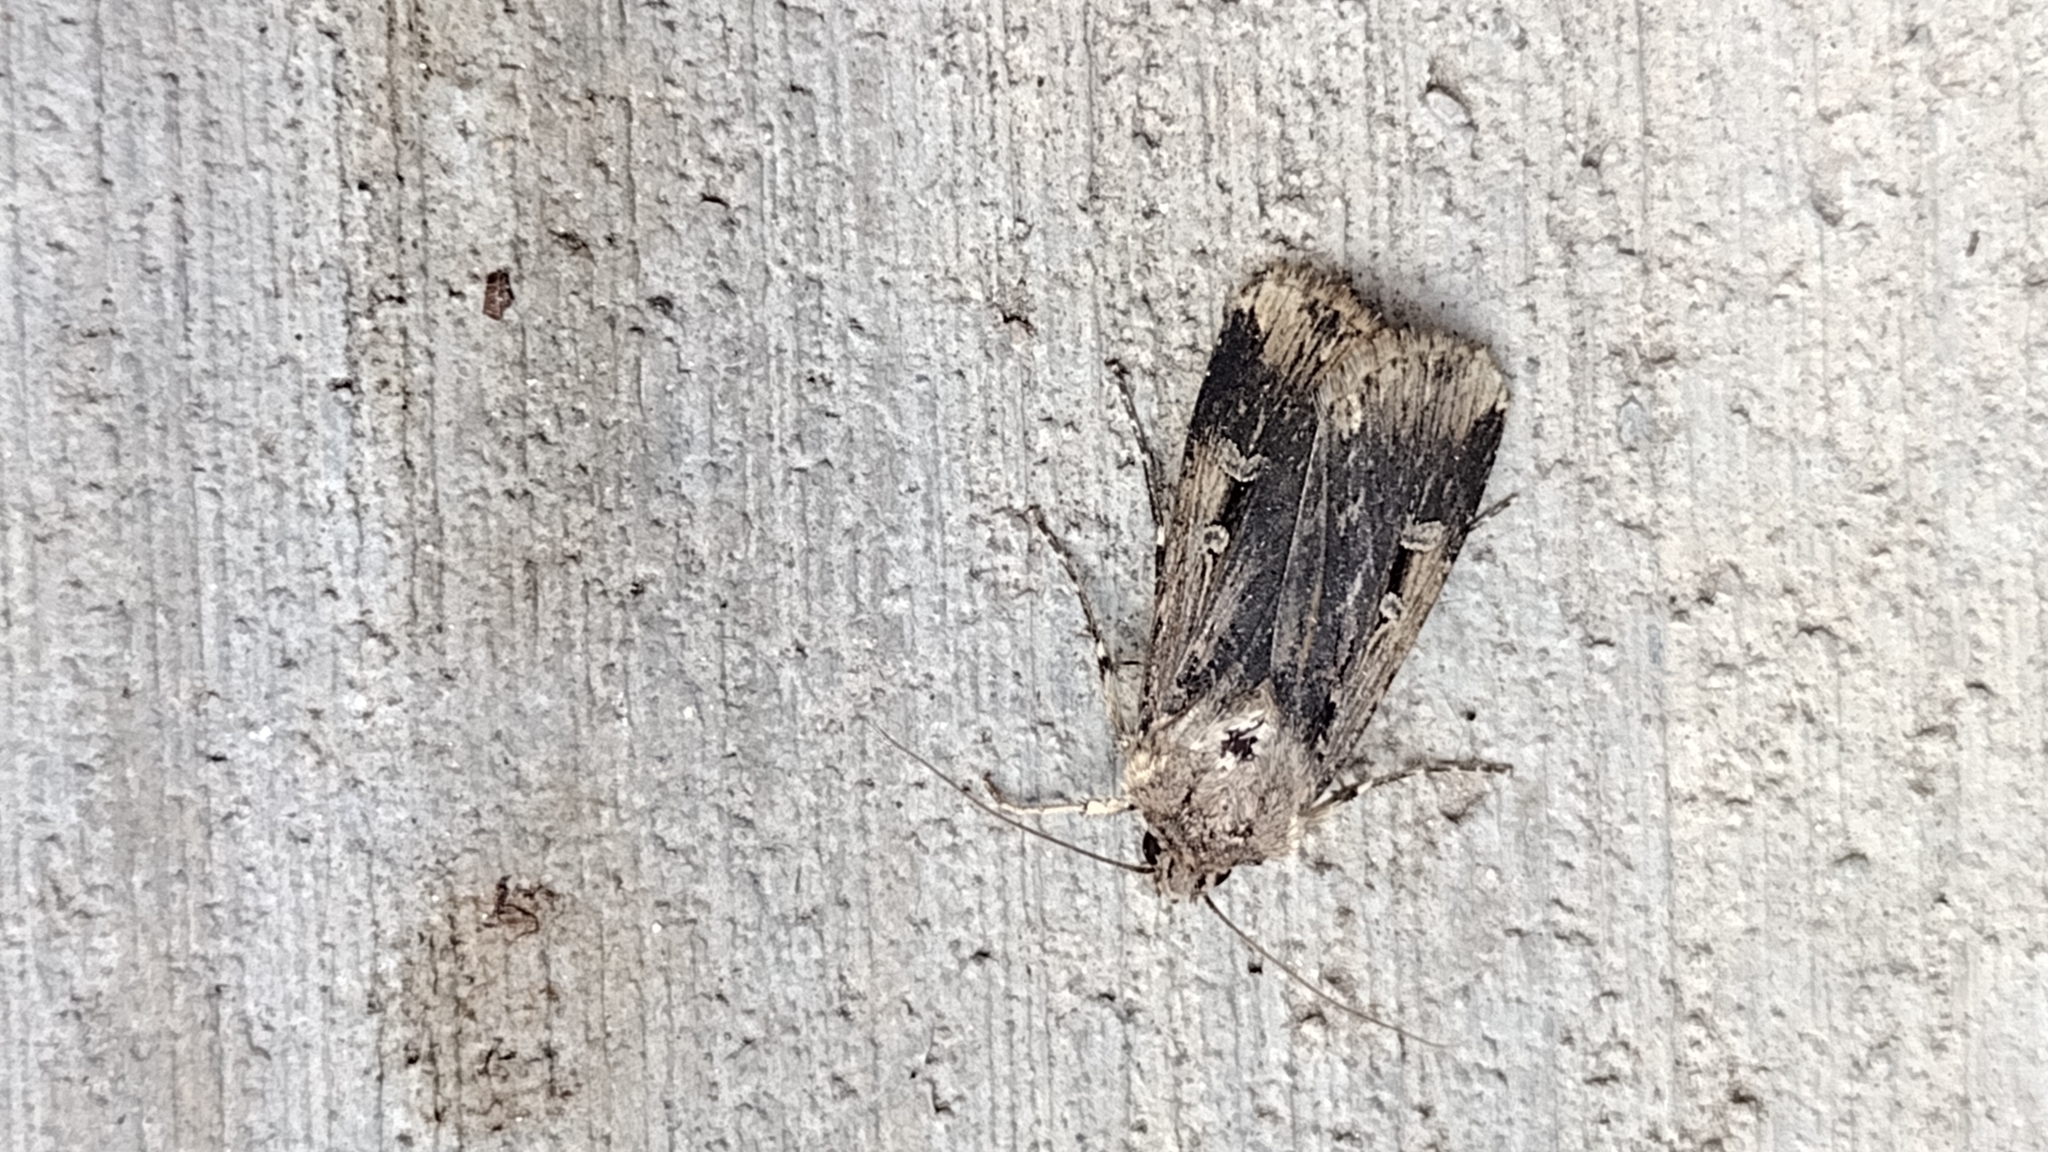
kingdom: Animalia
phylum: Arthropoda
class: Insecta
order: Lepidoptera
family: Noctuidae
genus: Feltia
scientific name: Feltia subterranea
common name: Granulate cutworm
